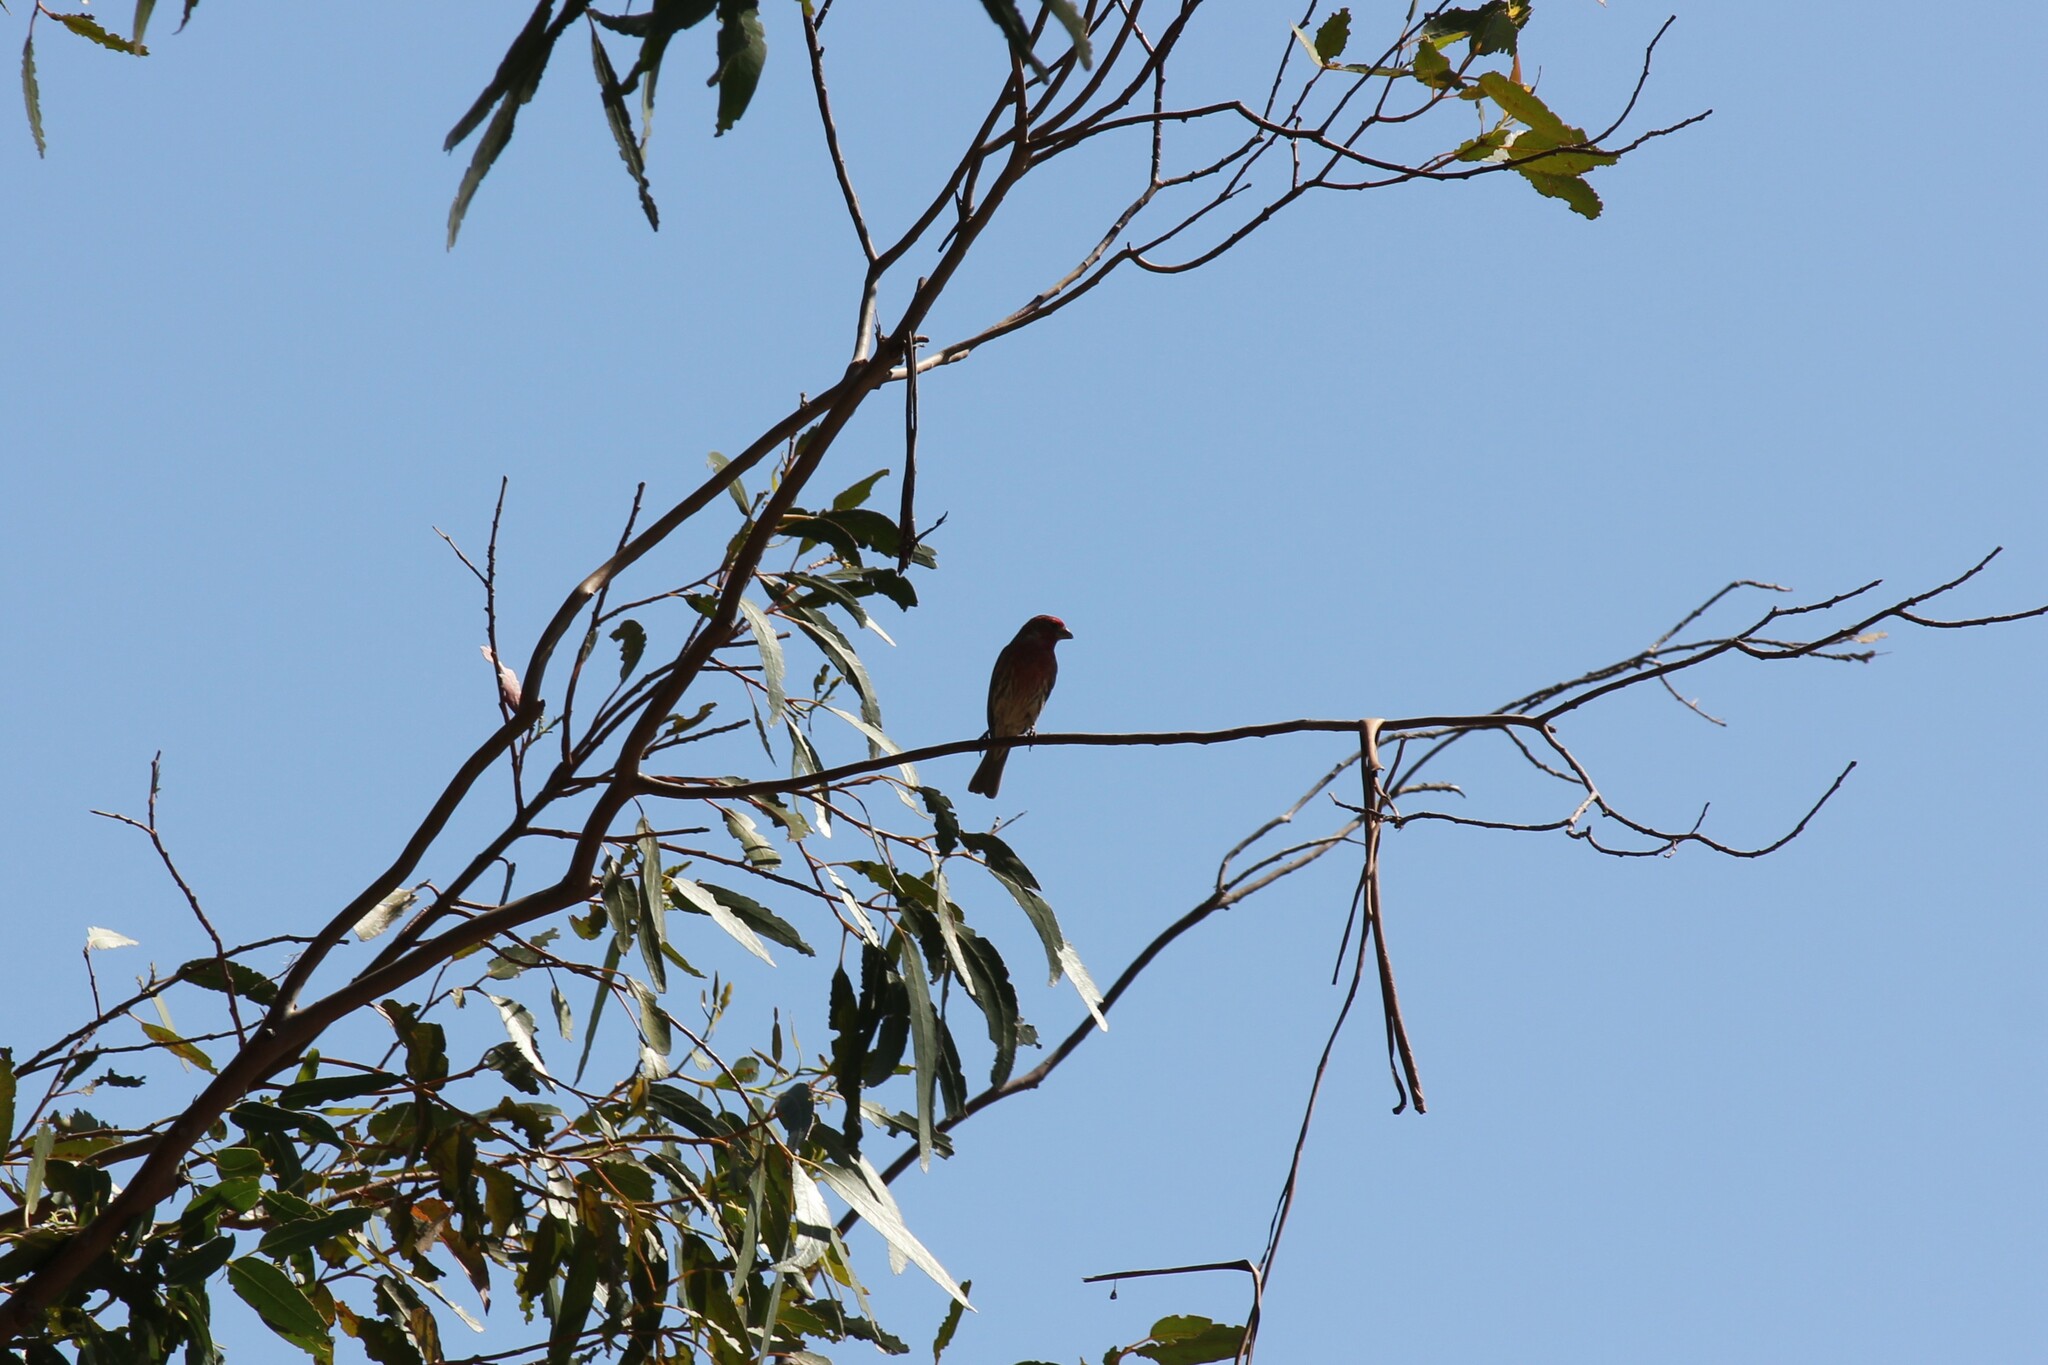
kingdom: Animalia
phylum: Chordata
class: Aves
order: Passeriformes
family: Fringillidae
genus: Haemorhous
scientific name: Haemorhous mexicanus
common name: House finch
